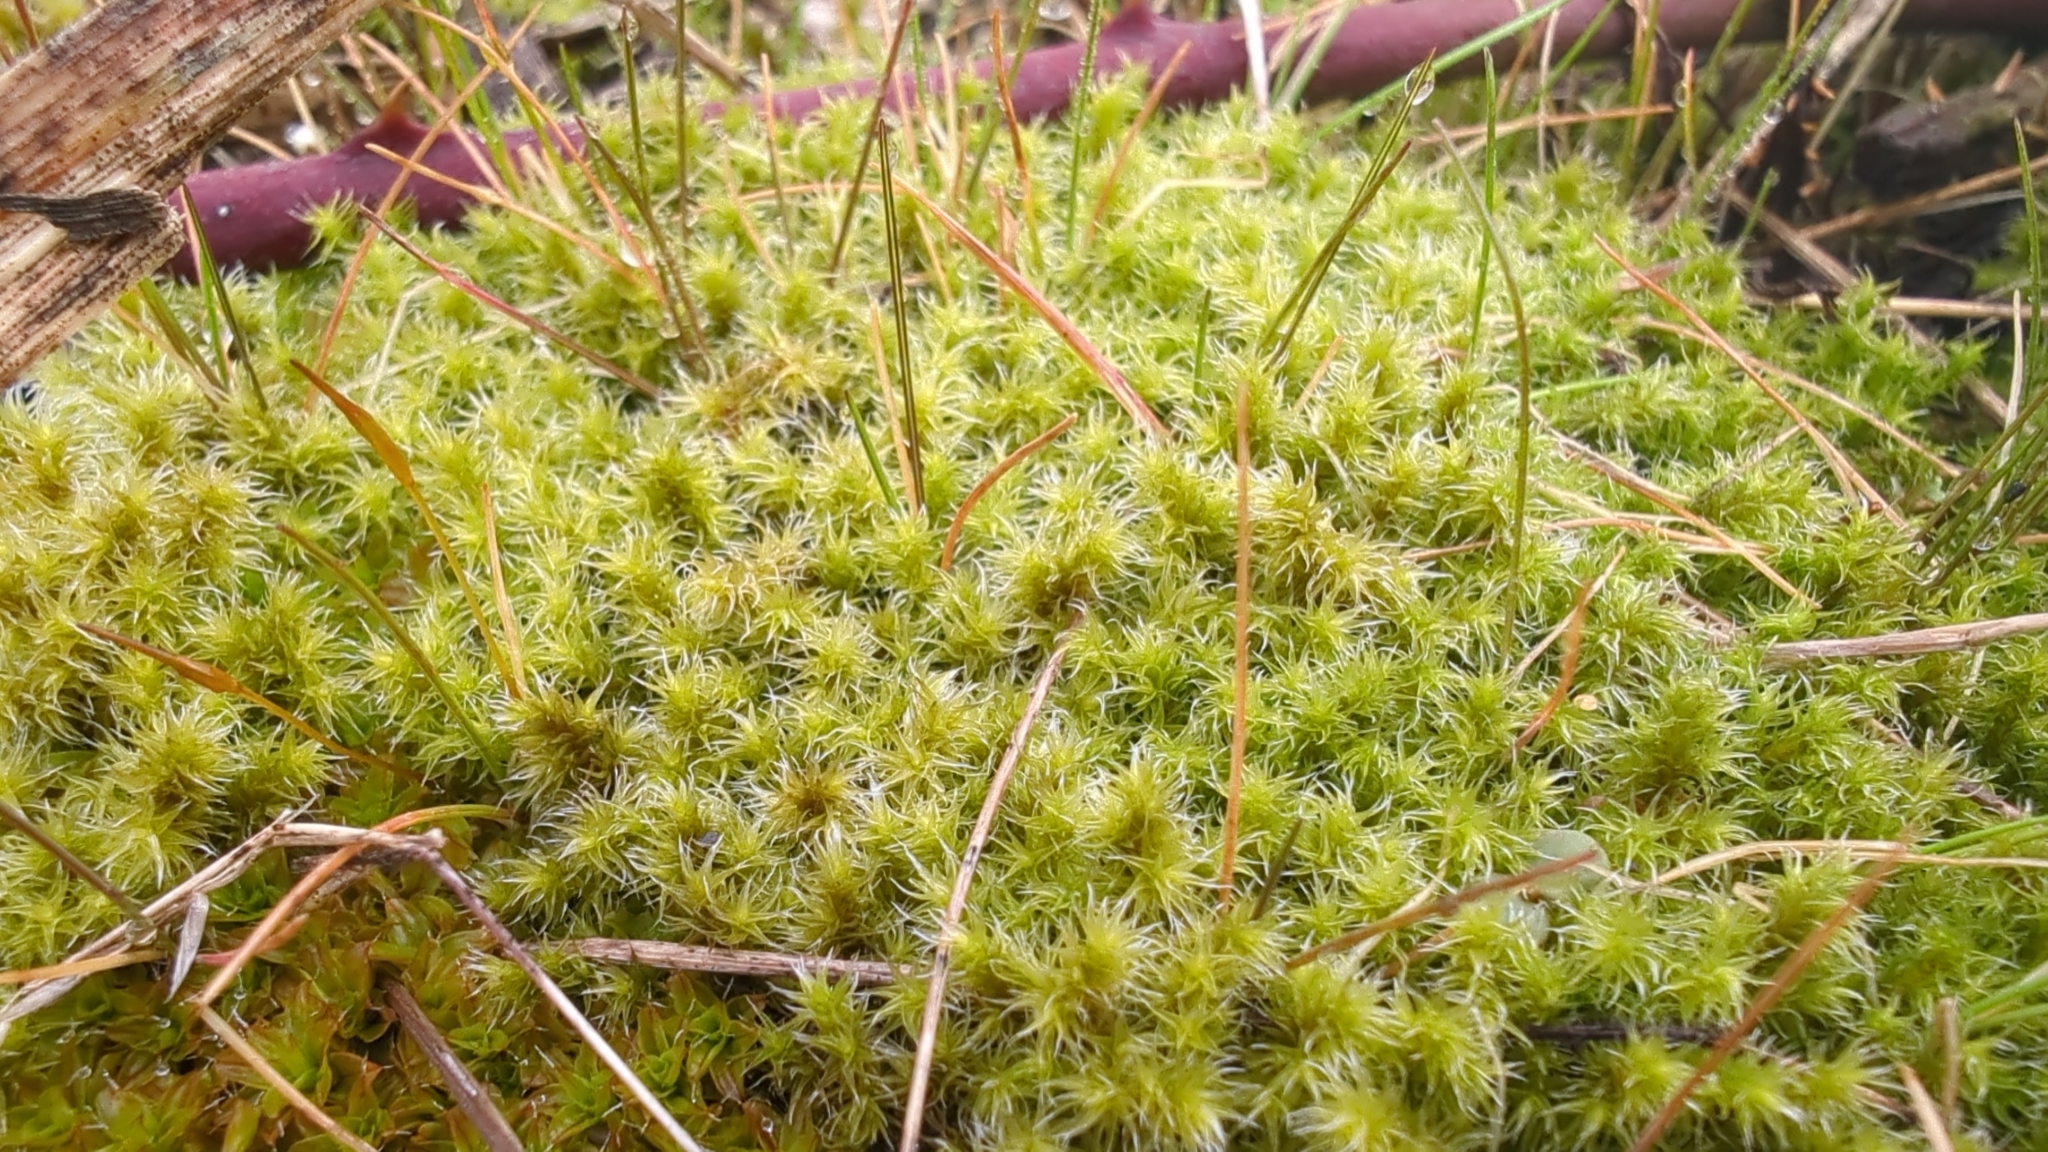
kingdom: Plantae
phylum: Bryophyta
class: Bryopsida
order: Grimmiales
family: Grimmiaceae
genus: Niphotrichum
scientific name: Niphotrichum elongatum
